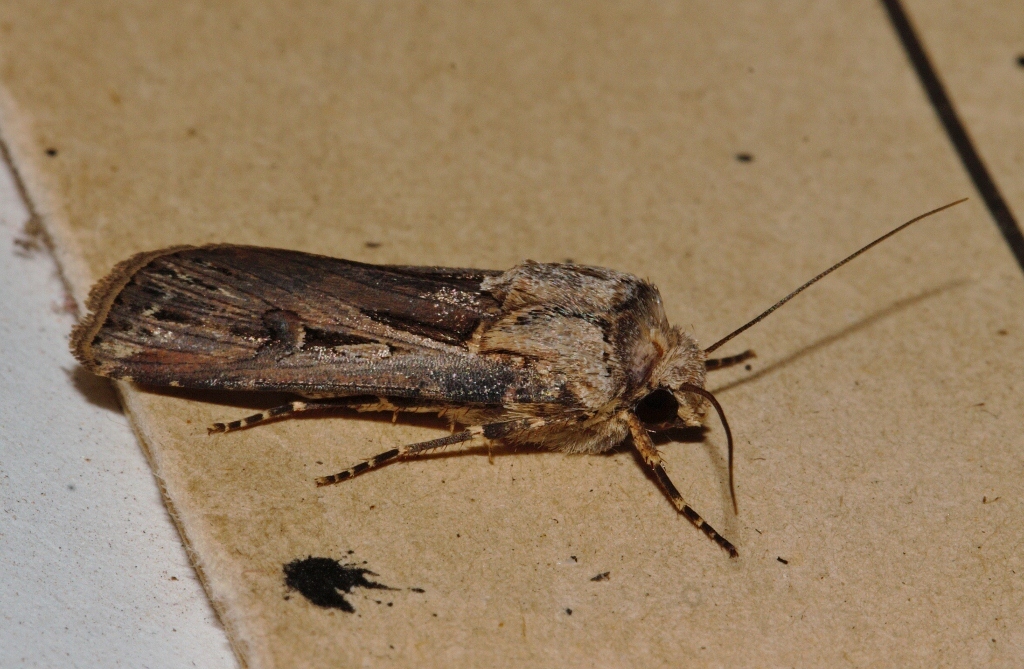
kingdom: Animalia
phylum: Arthropoda
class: Insecta
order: Lepidoptera
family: Noctuidae
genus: Agrotis
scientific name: Agrotis
